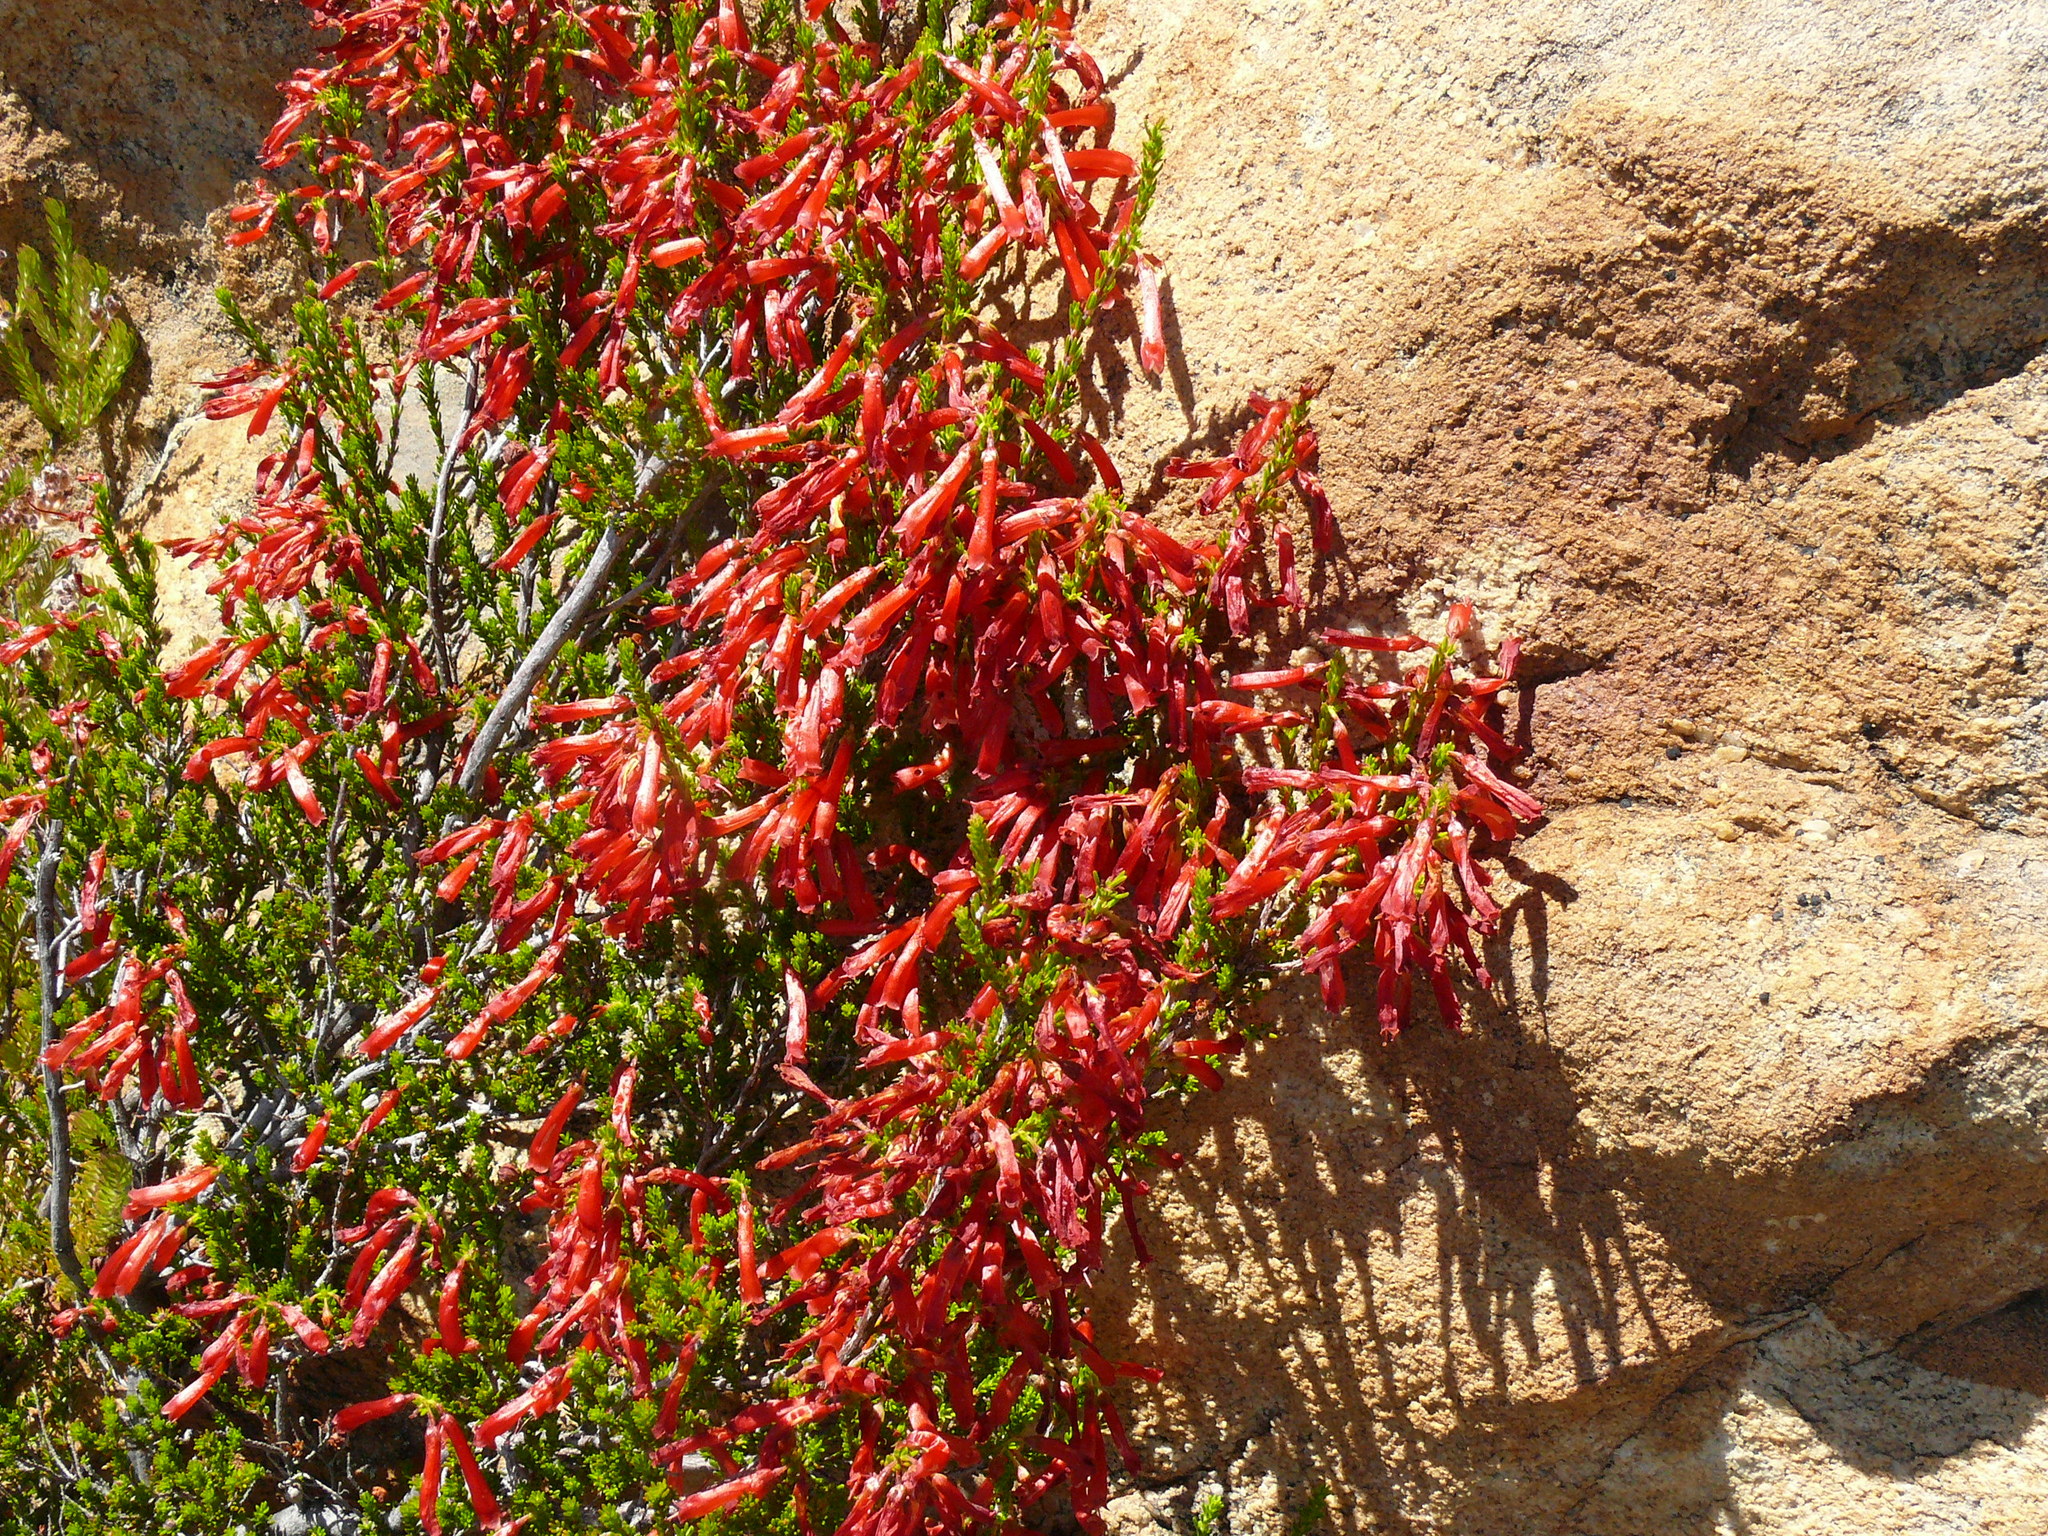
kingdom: Plantae
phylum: Tracheophyta
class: Magnoliopsida
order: Ericales
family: Ericaceae
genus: Erica
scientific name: Erica haematosiphon
